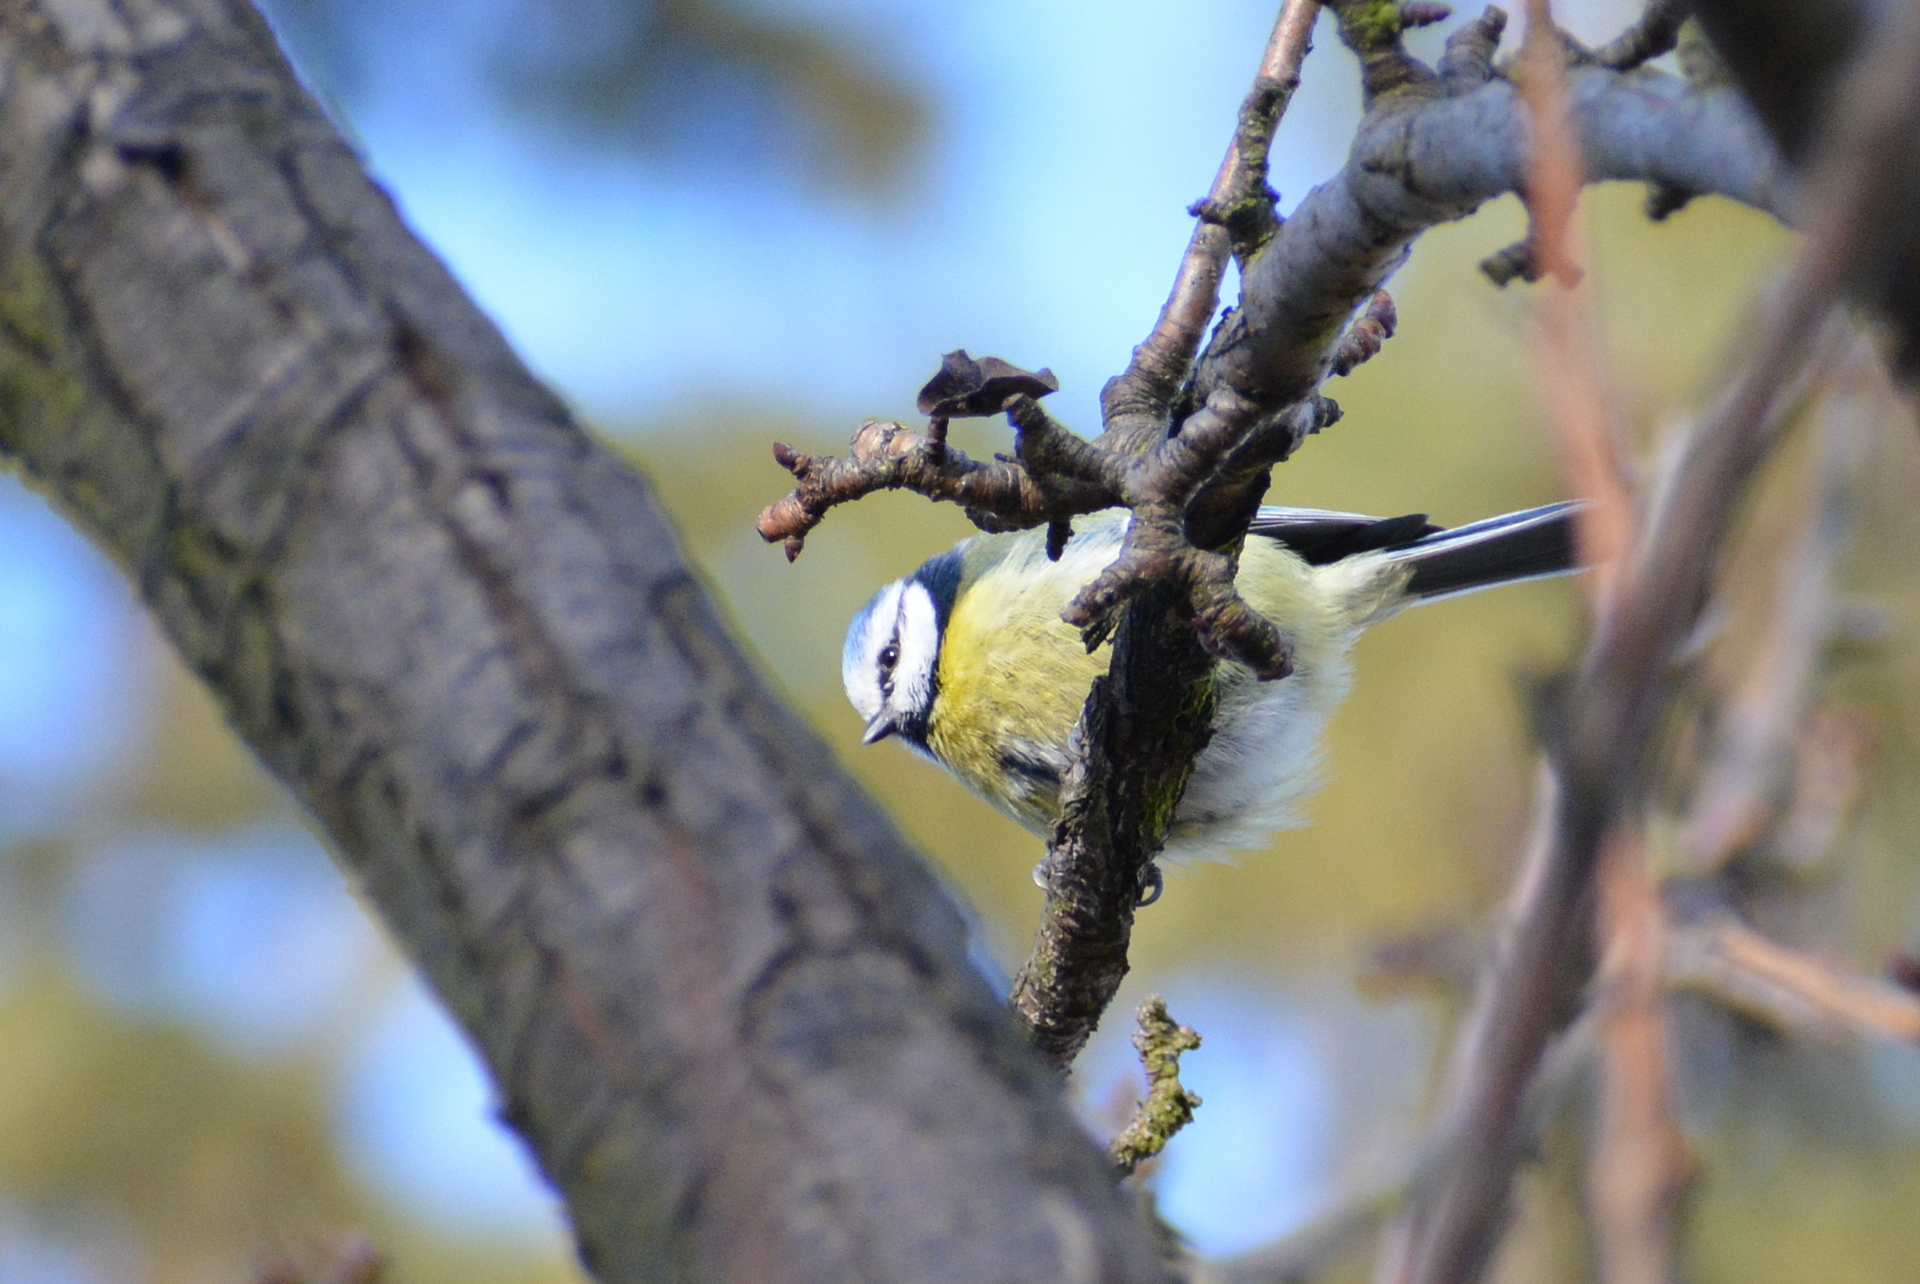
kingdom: Animalia
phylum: Chordata
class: Aves
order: Passeriformes
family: Paridae
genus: Cyanistes
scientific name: Cyanistes caeruleus
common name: Eurasian blue tit
